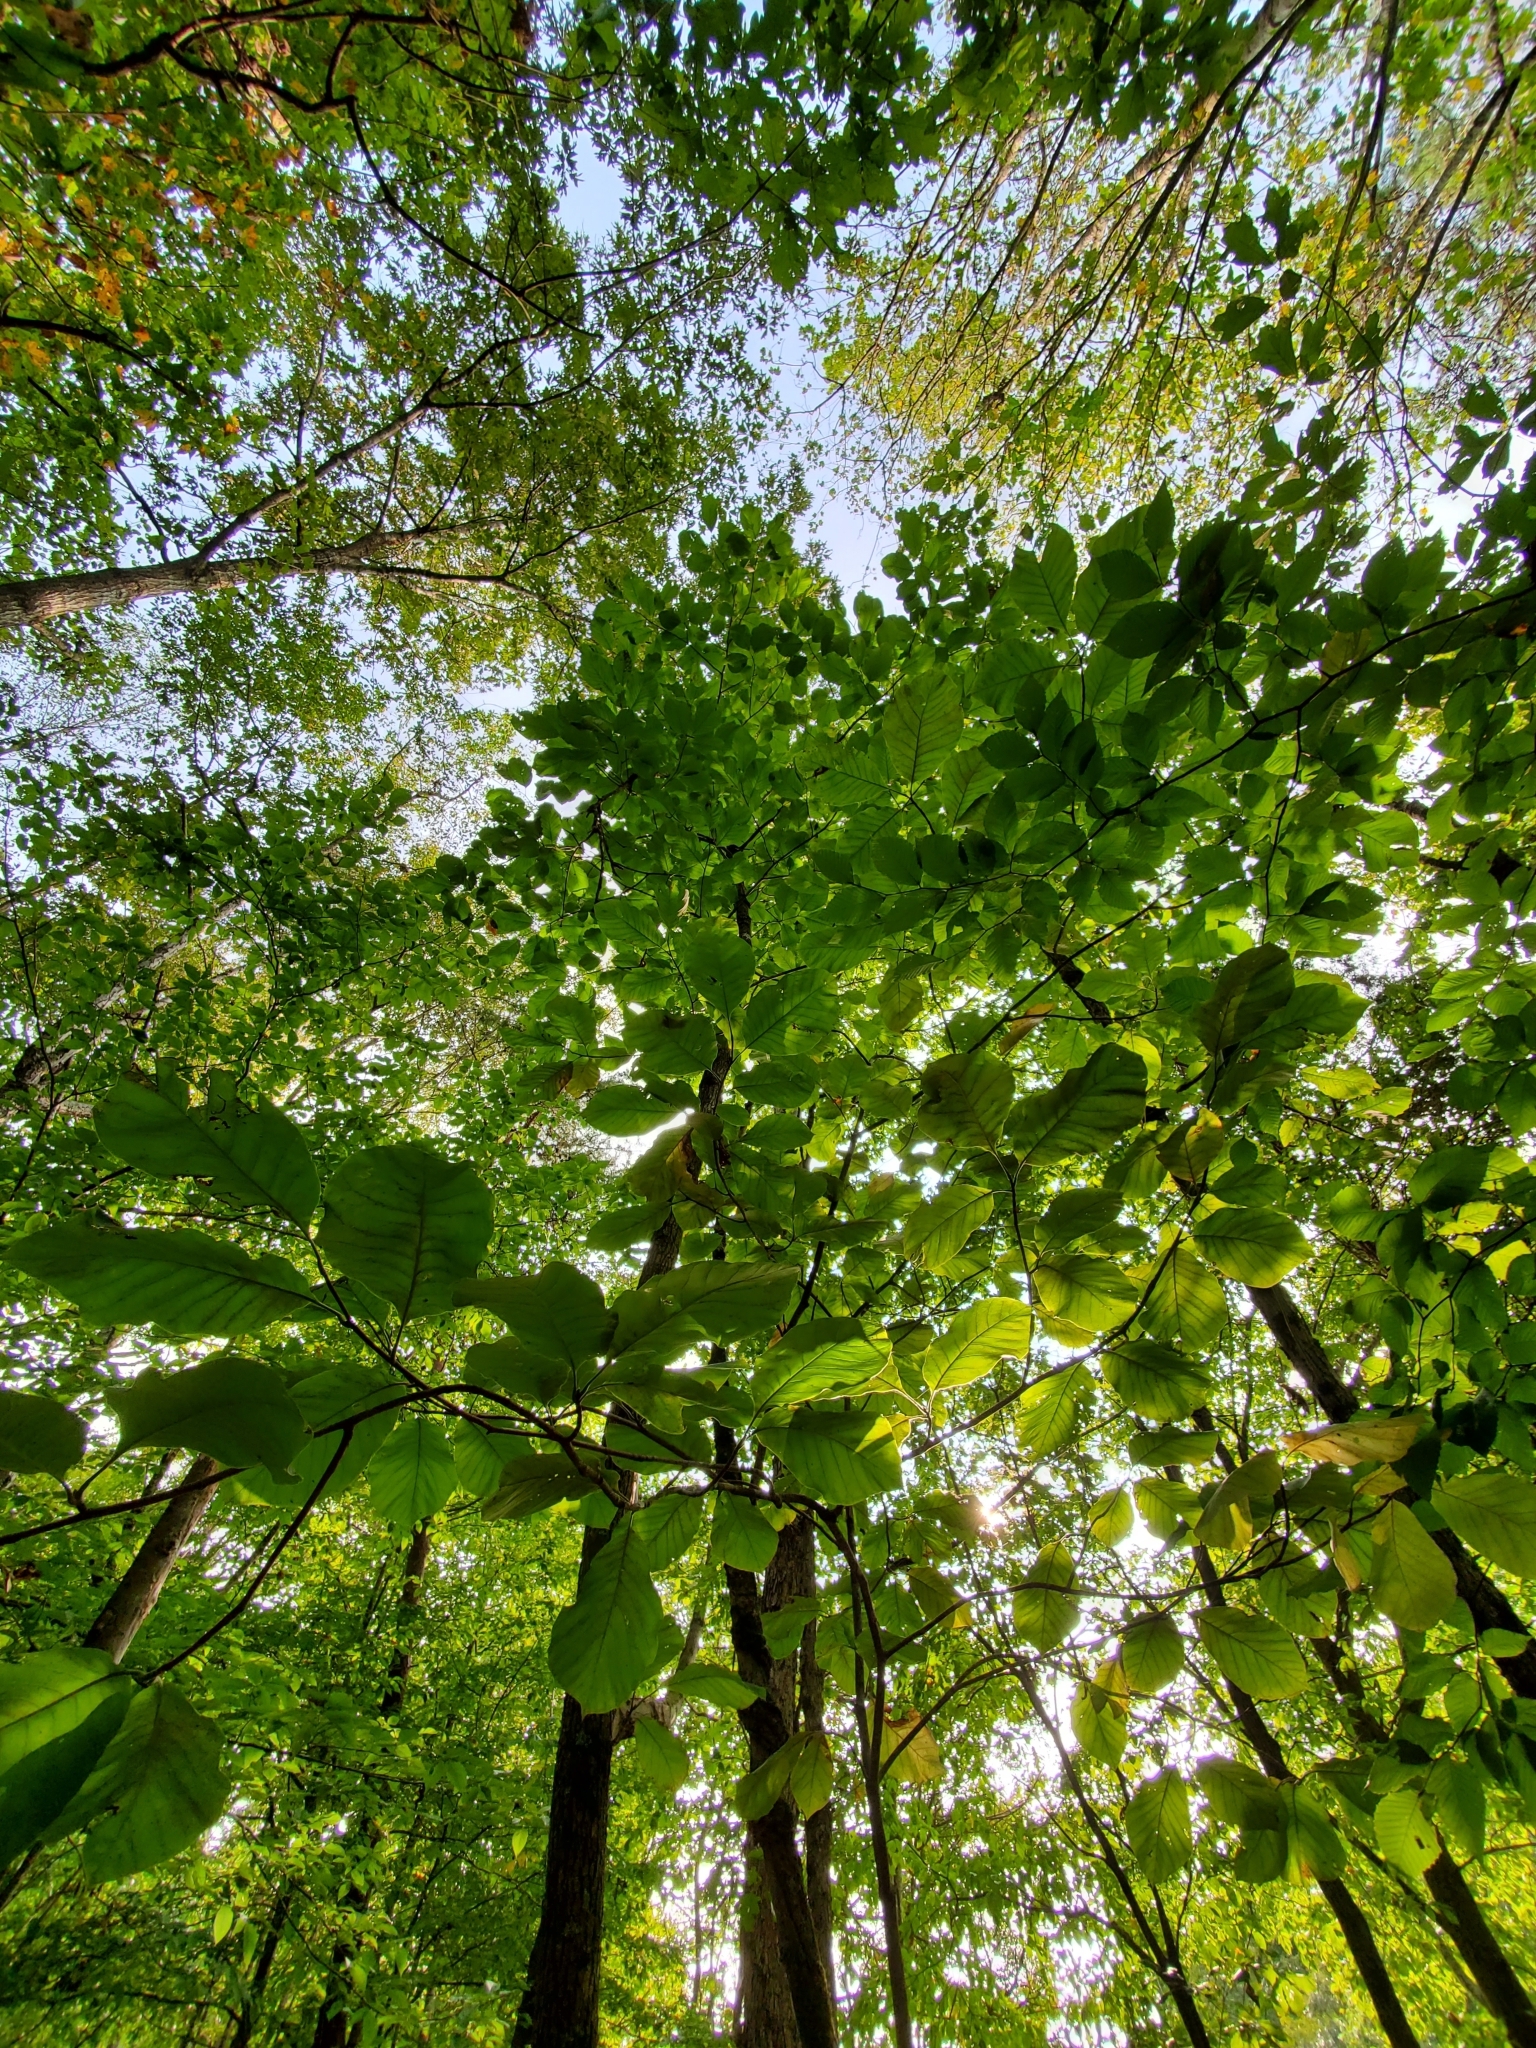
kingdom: Plantae
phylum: Tracheophyta
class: Magnoliopsida
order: Magnoliales
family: Magnoliaceae
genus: Magnolia
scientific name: Magnolia acuminata
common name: Cucumber magnolia
